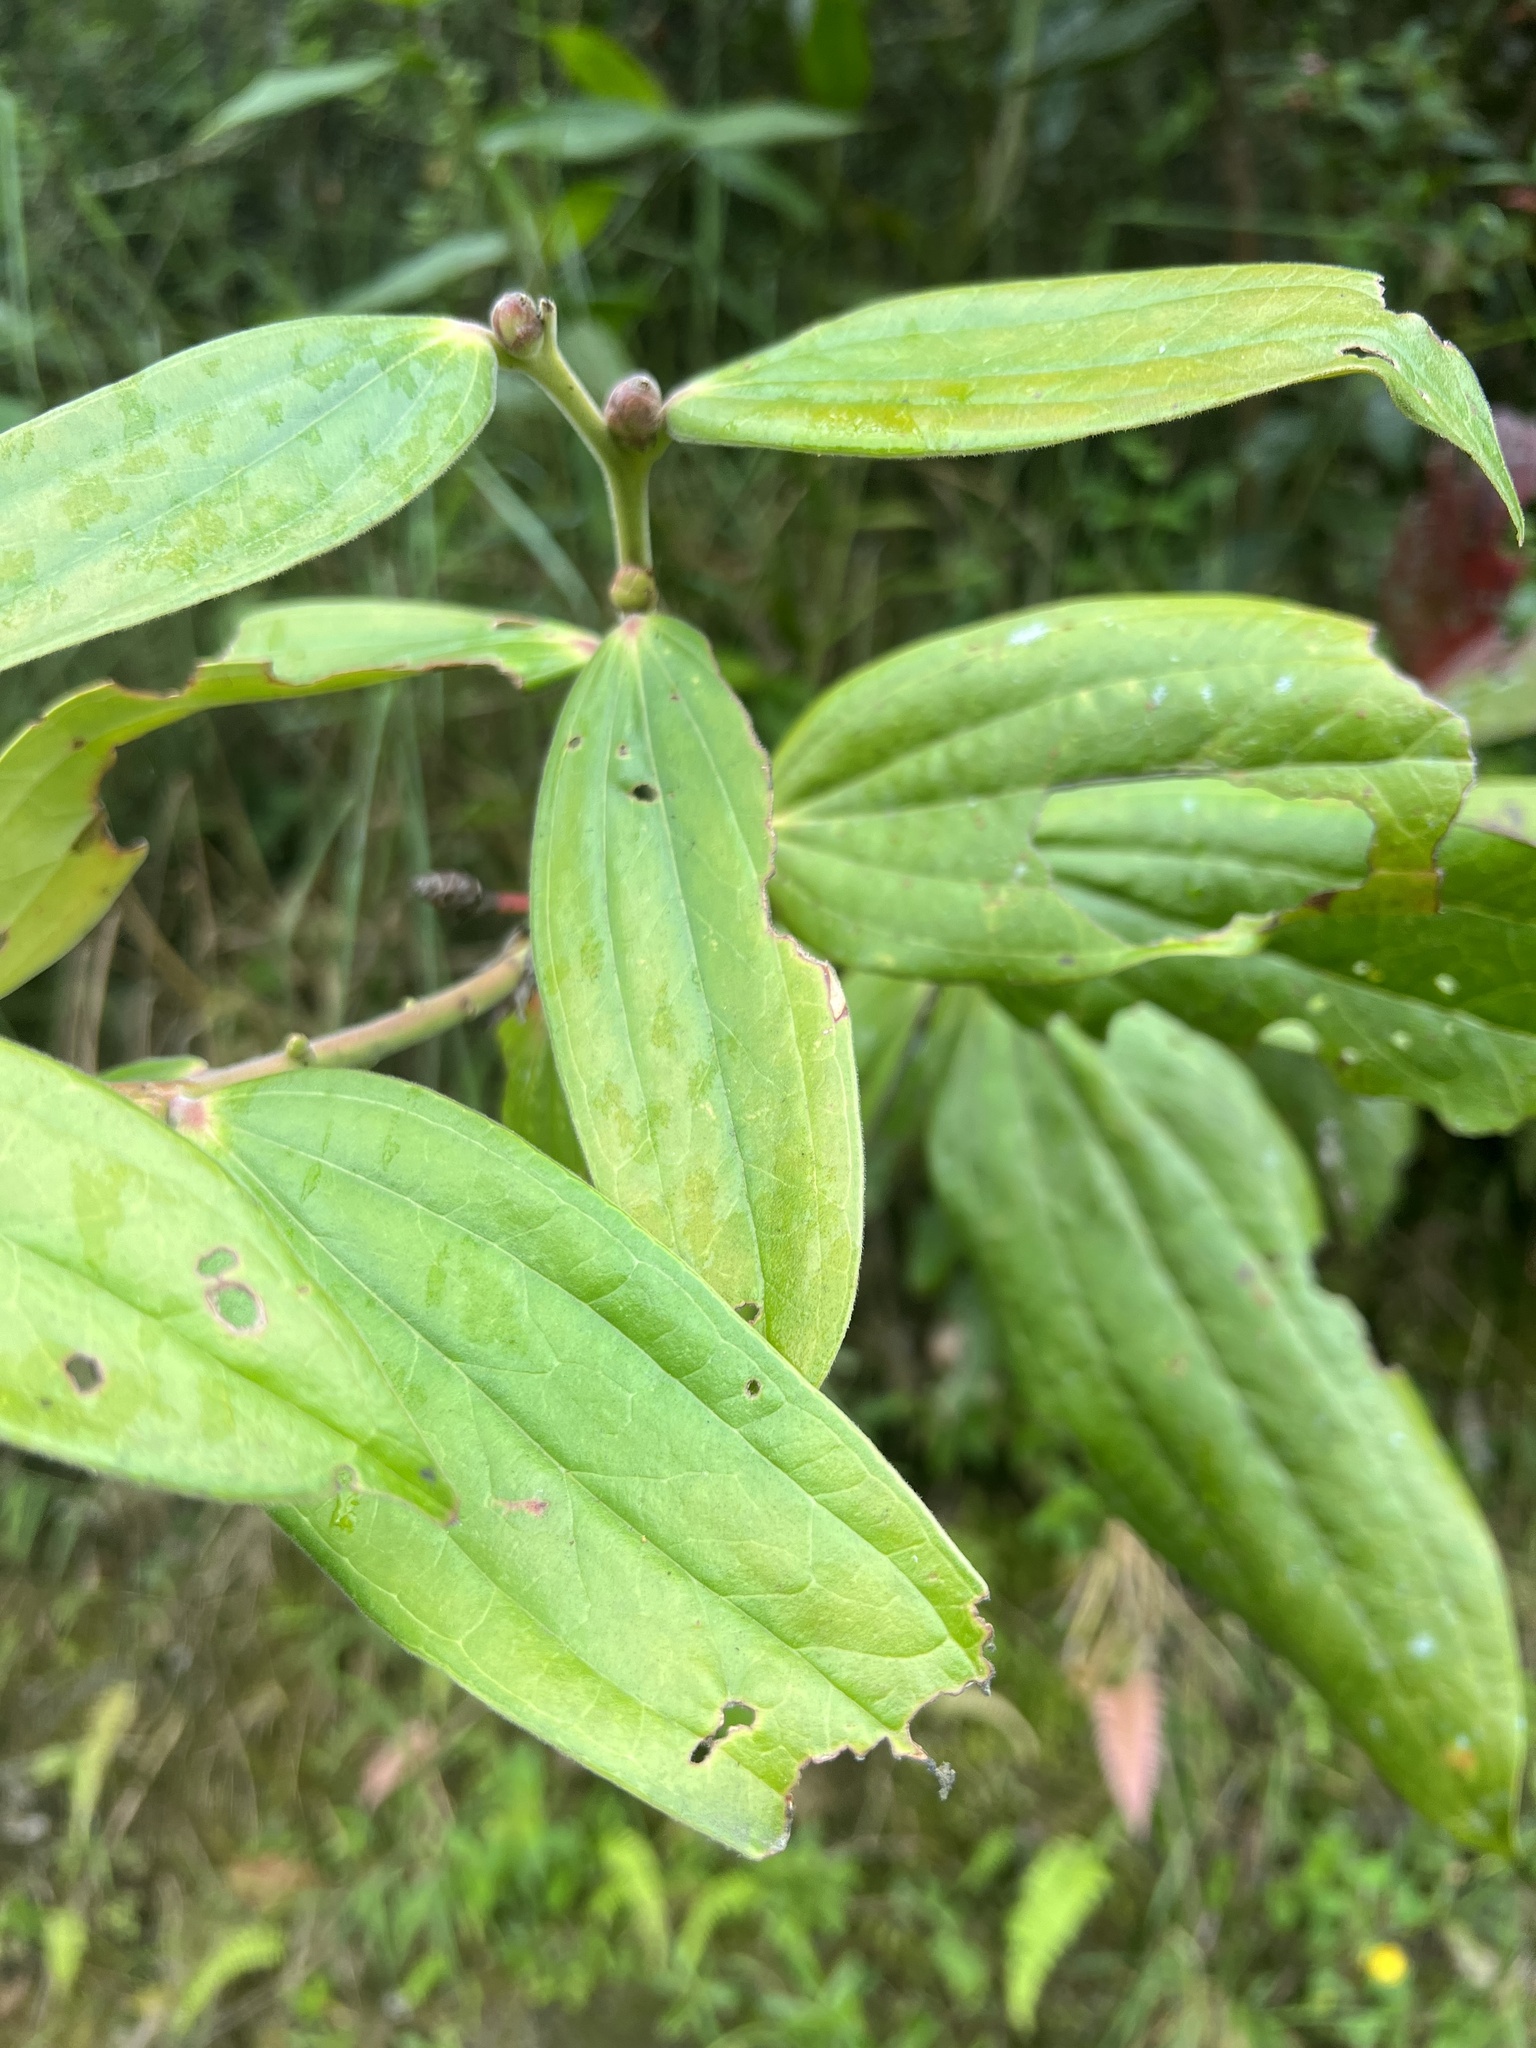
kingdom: Plantae
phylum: Tracheophyta
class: Magnoliopsida
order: Ericales
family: Ericaceae
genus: Cavendishia
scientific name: Cavendishia pubescens
